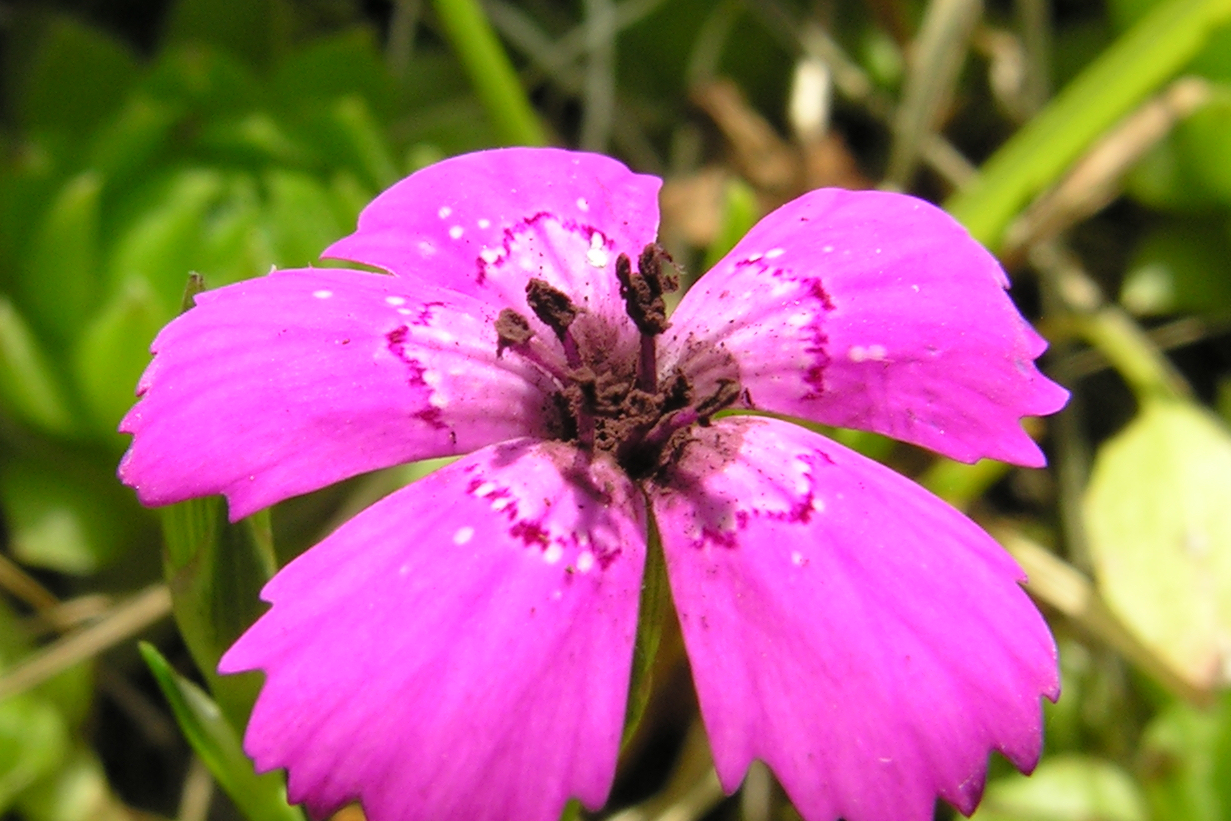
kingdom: Fungi
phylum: Basidiomycota
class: Microbotryomycetes
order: Microbotryales
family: Microbotryaceae
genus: Microbotryum
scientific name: Microbotryum dianthorum
